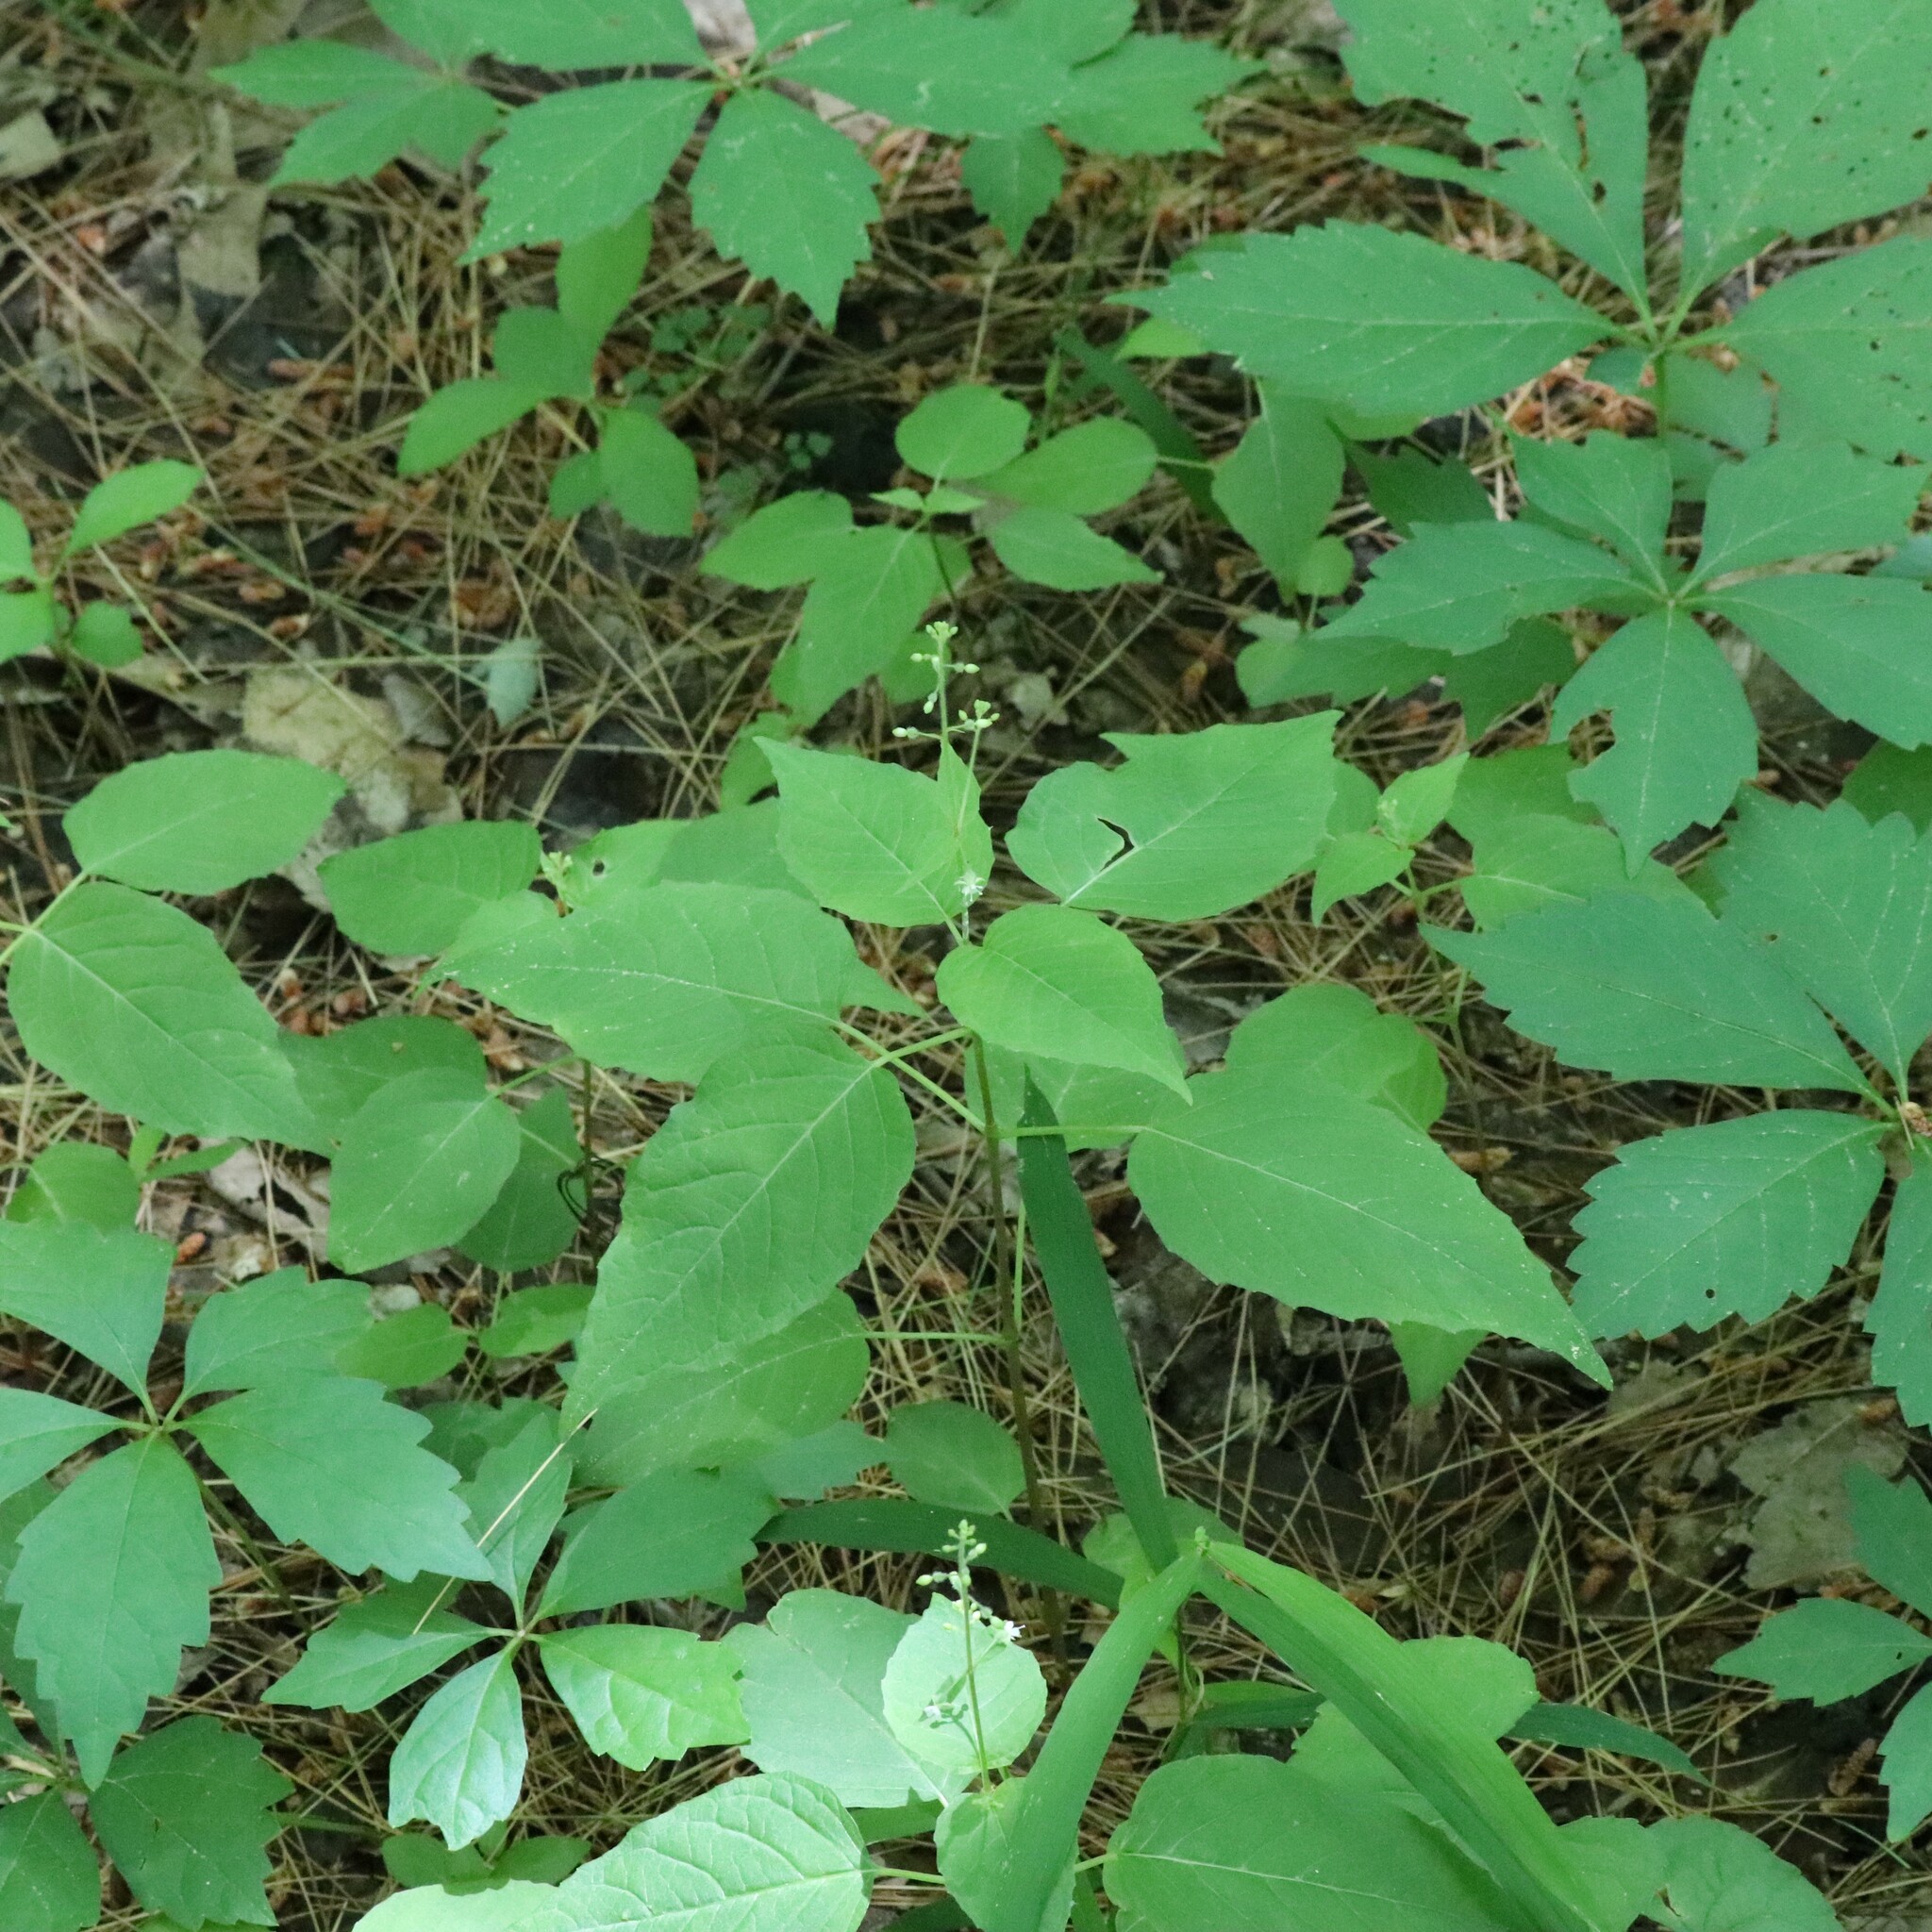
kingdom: Plantae
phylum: Tracheophyta
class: Magnoliopsida
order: Myrtales
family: Onagraceae
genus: Circaea
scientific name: Circaea canadensis
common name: Broad-leaved enchanter's nightshade
